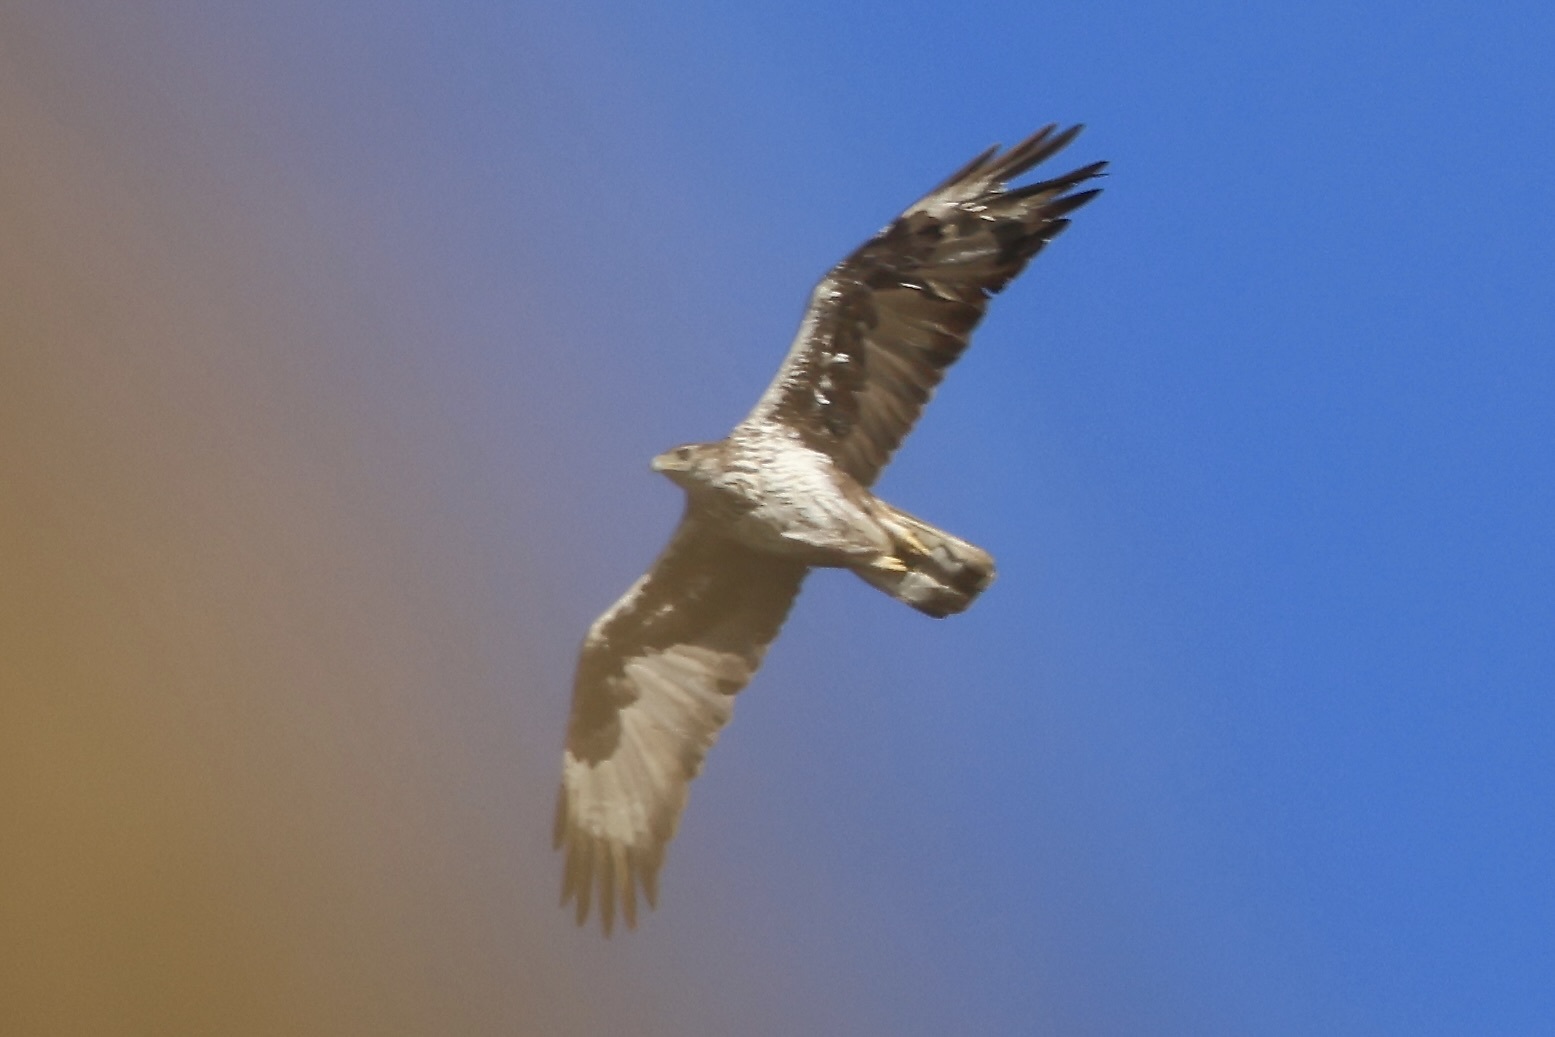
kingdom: Animalia
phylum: Chordata
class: Aves
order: Accipitriformes
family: Accipitridae
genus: Aquila
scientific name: Aquila fasciata
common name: Bonelli's eagle
